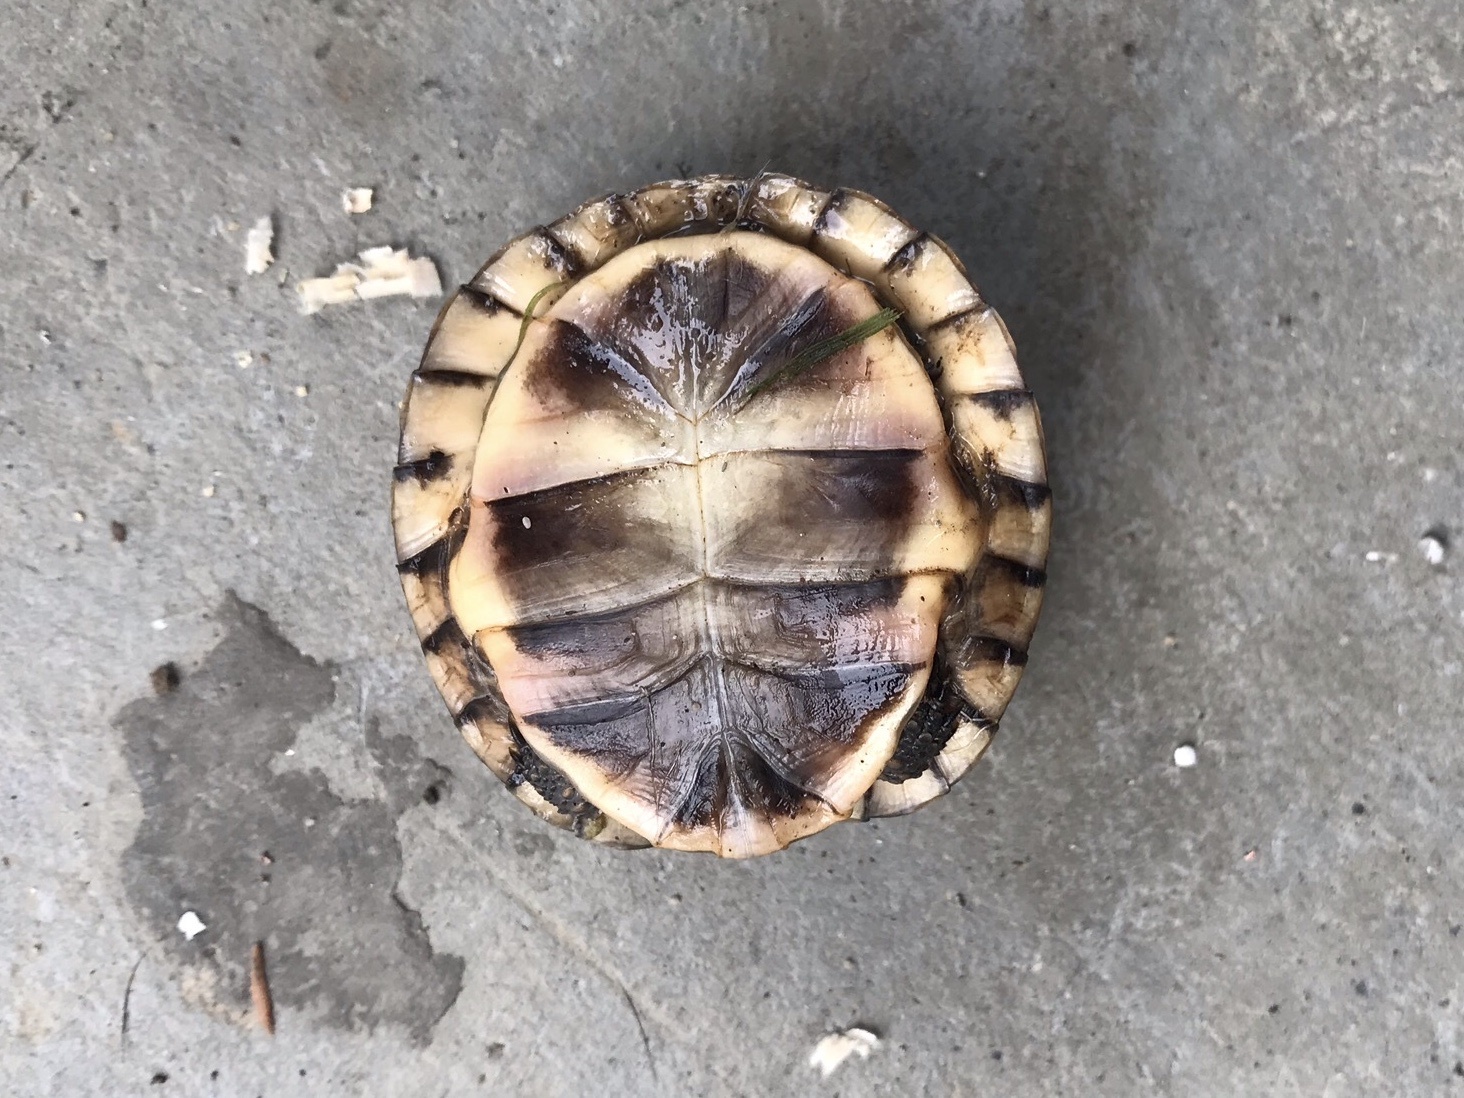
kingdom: Animalia
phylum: Chordata
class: Testudines
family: Emydidae
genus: Terrapene
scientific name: Terrapene carolina
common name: Common box turtle
